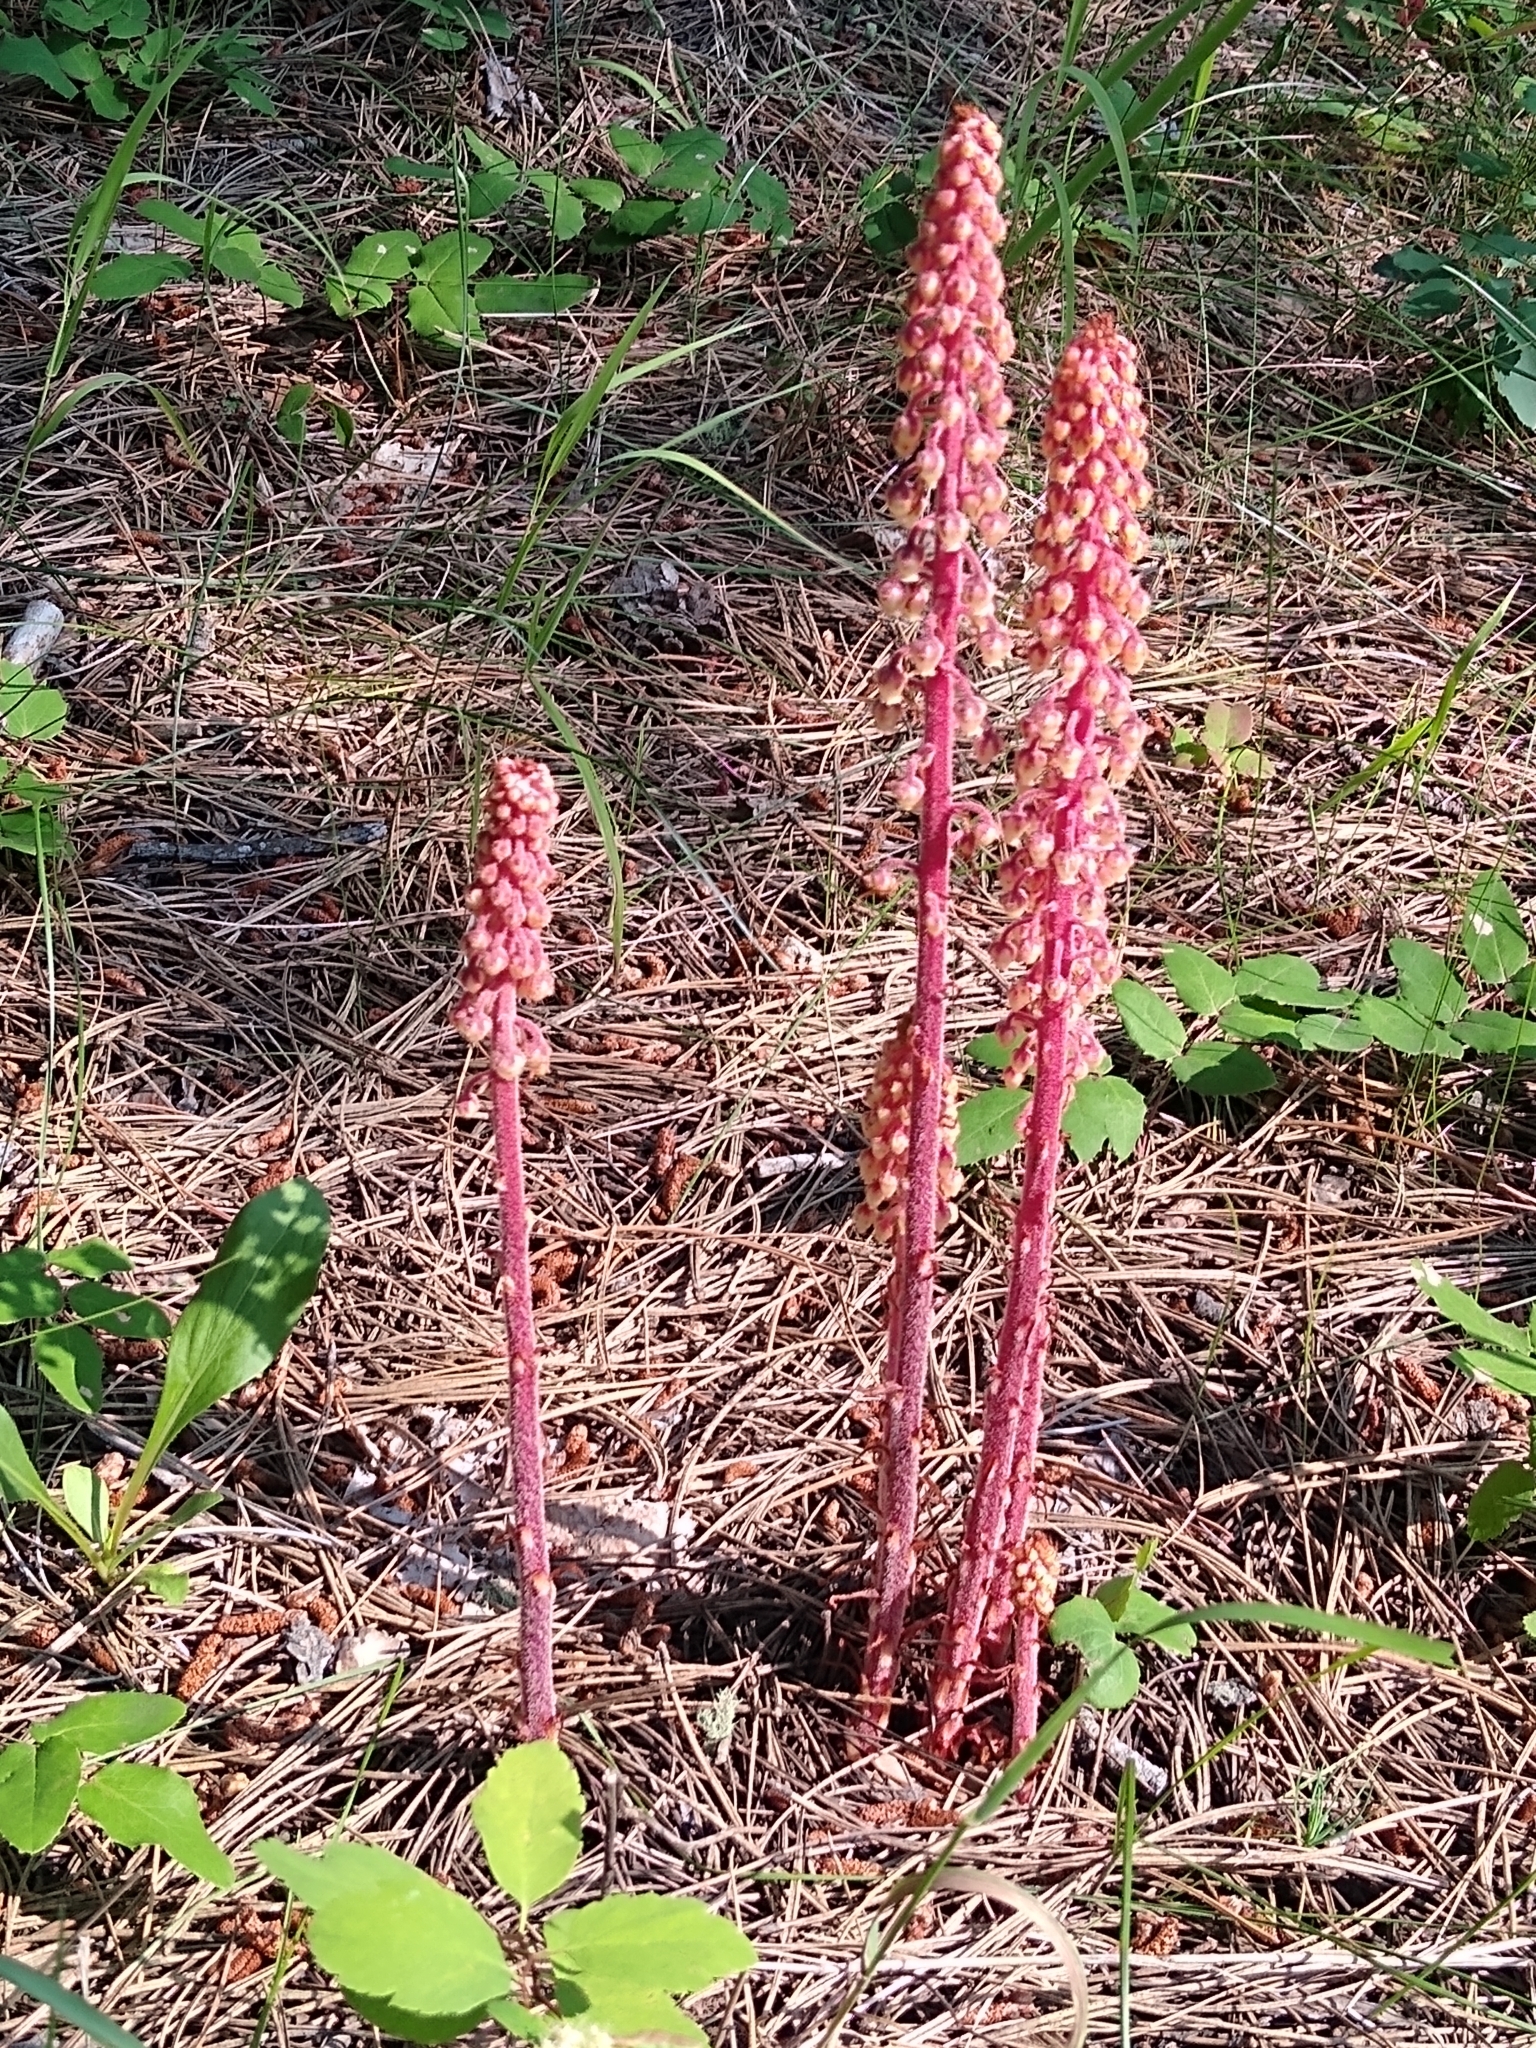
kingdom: Plantae
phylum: Tracheophyta
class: Magnoliopsida
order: Ericales
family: Ericaceae
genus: Pterospora
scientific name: Pterospora andromedea
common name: Giant bird's-nest
